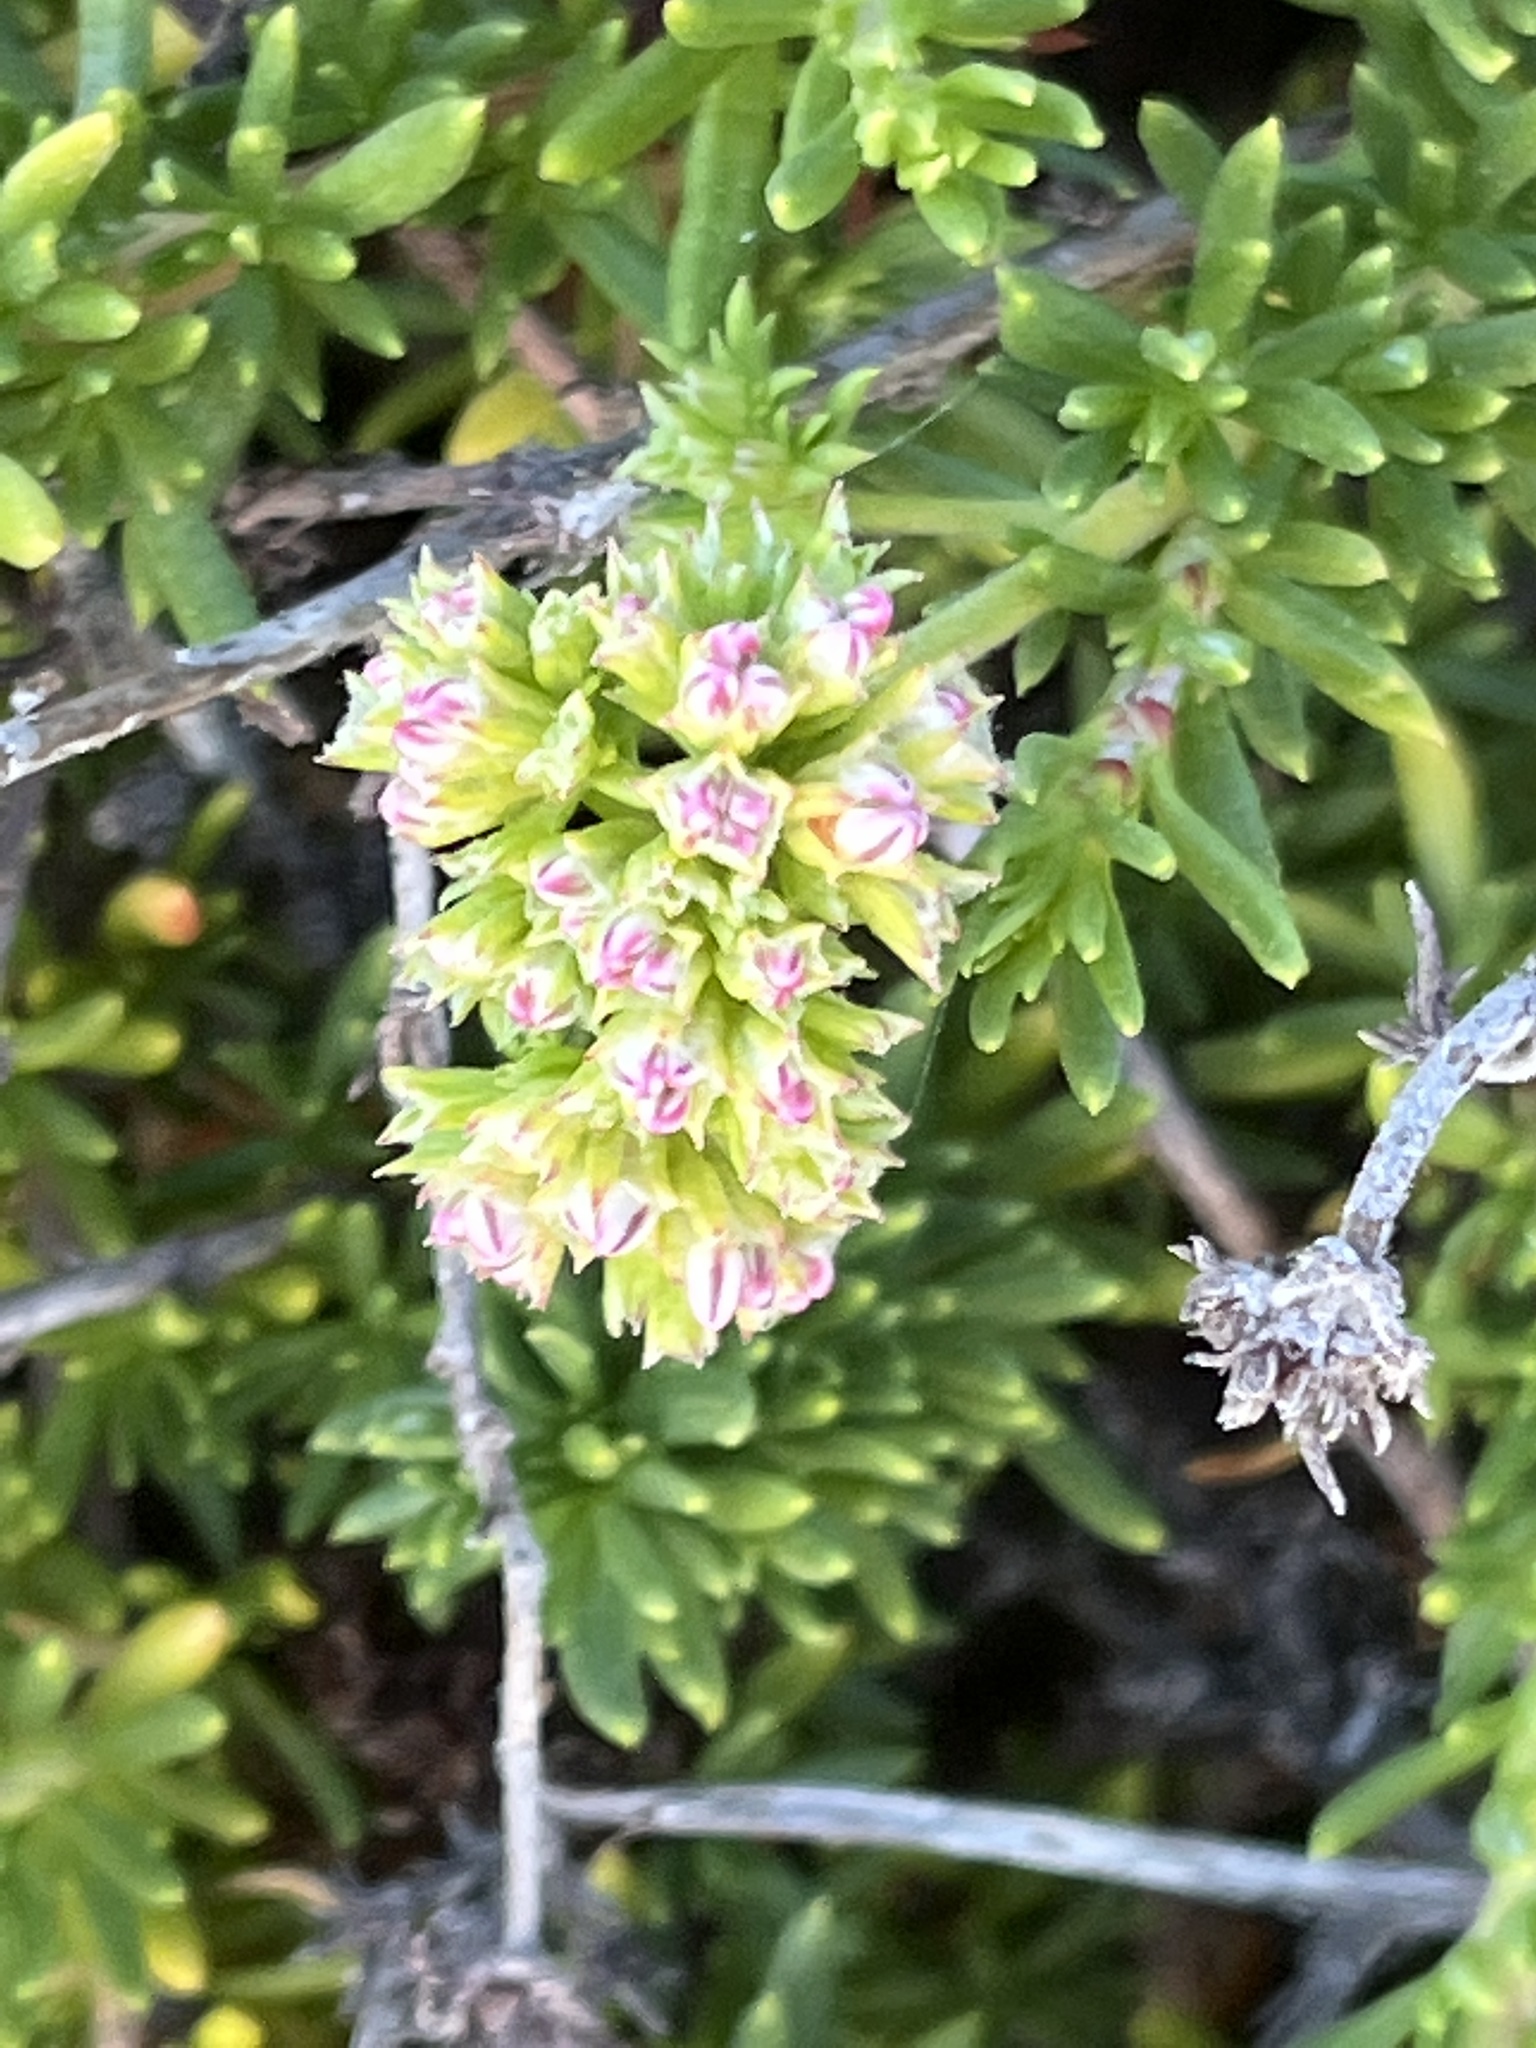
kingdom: Plantae
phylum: Tracheophyta
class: Magnoliopsida
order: Caryophyllales
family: Polygonaceae
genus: Eriogonum
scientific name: Eriogonum fasciculatum
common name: California wild buckwheat
